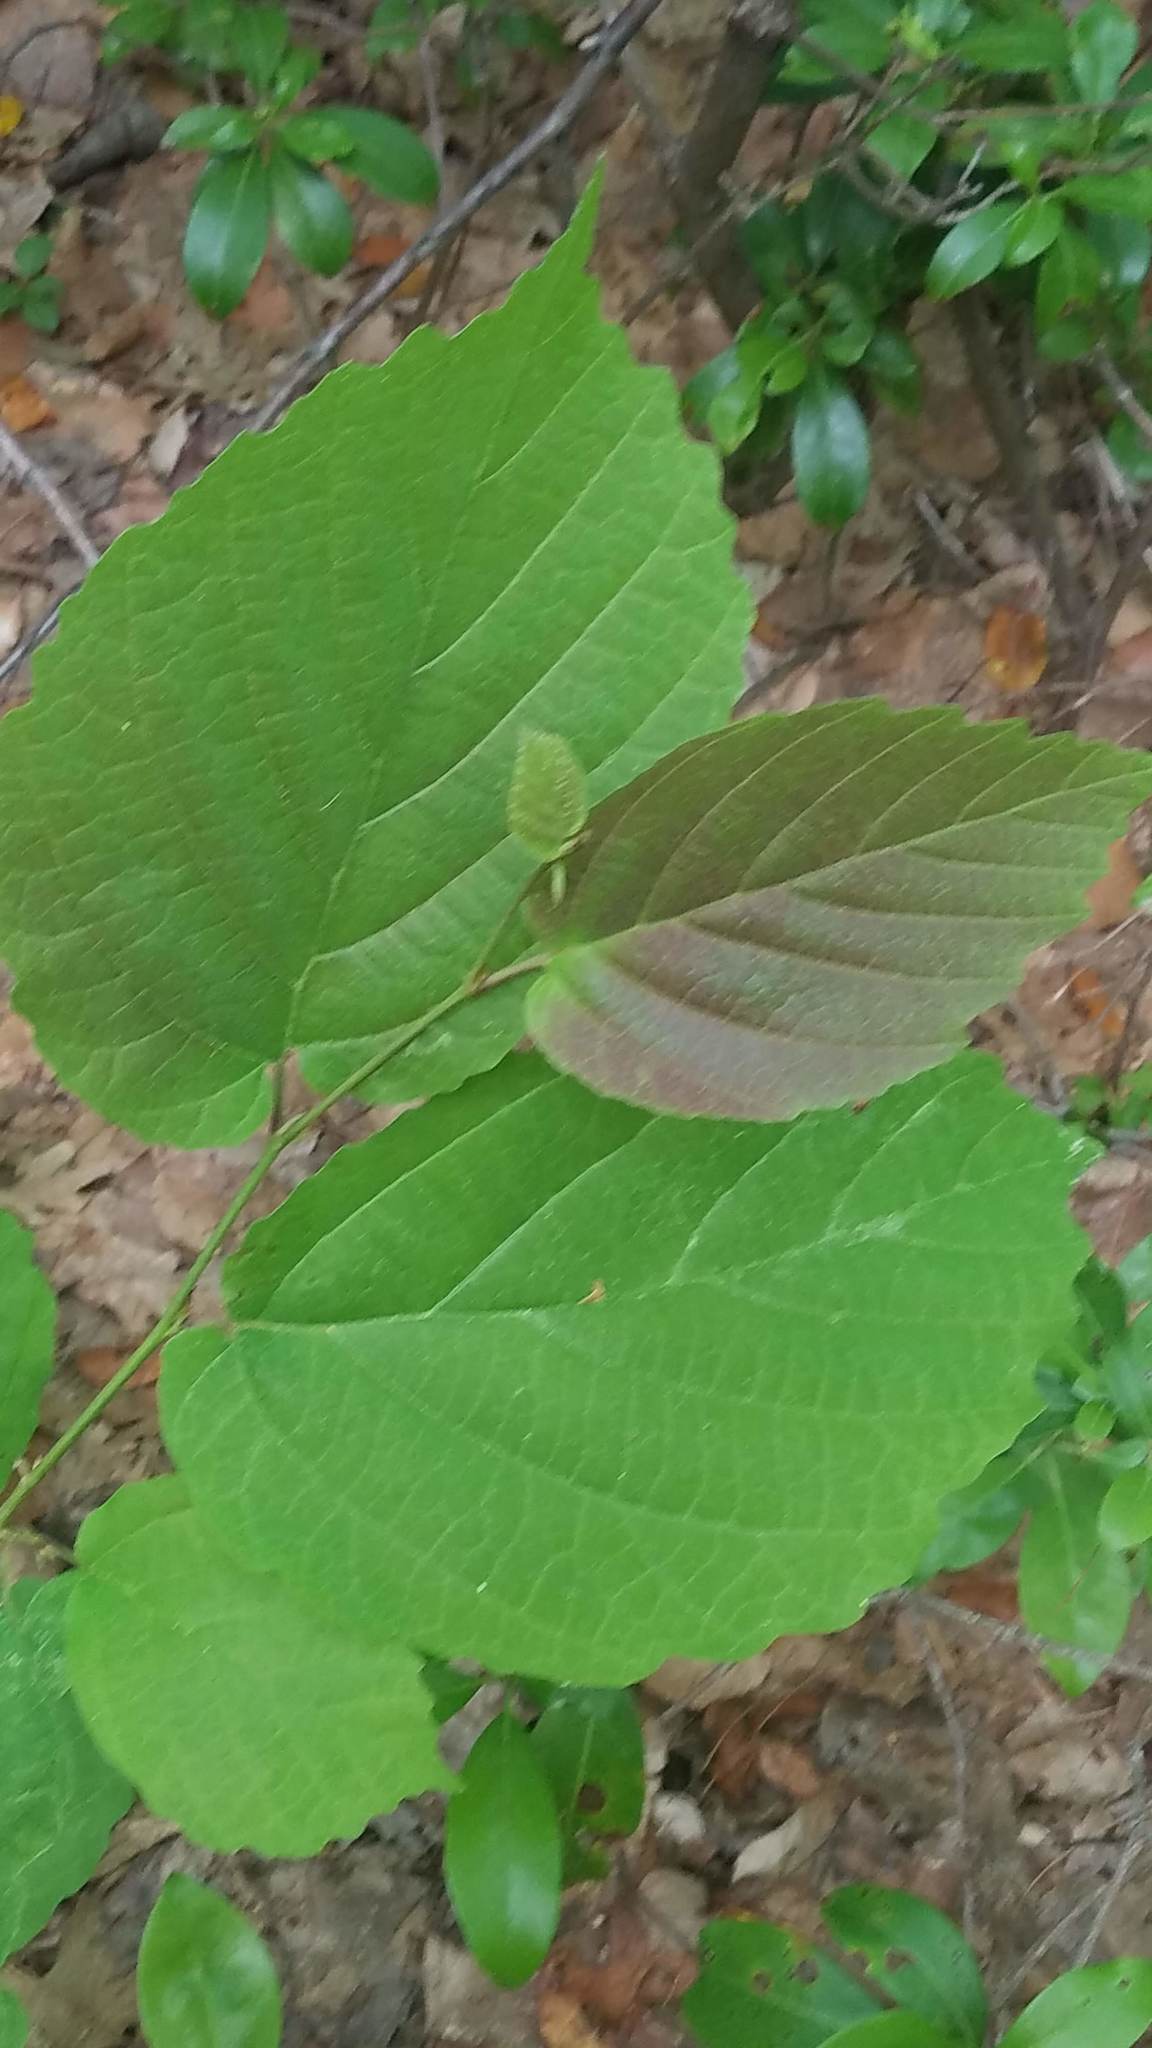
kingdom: Plantae
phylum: Tracheophyta
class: Magnoliopsida
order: Saxifragales
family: Hamamelidaceae
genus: Hamamelis
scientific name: Hamamelis virginiana
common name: Witch-hazel
